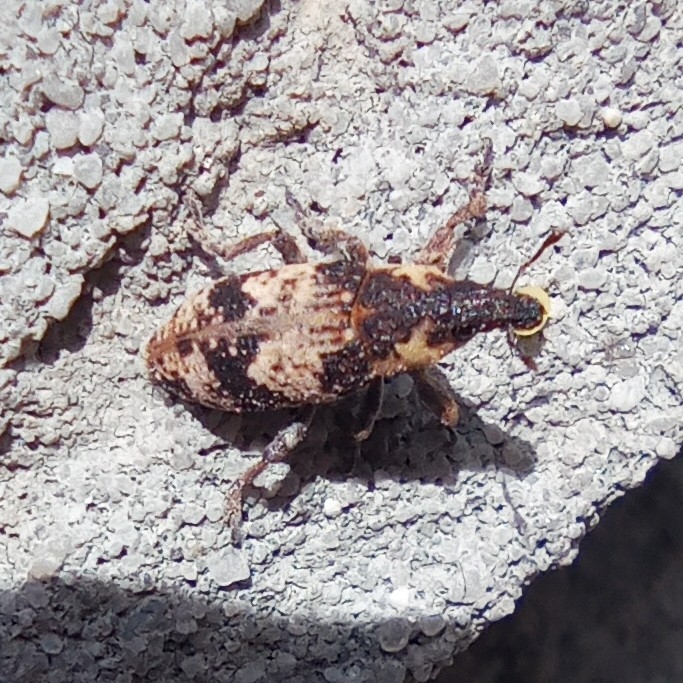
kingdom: Animalia
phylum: Arthropoda
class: Insecta
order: Coleoptera
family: Curculionidae
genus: Bothynoderes
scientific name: Bothynoderes affinis
